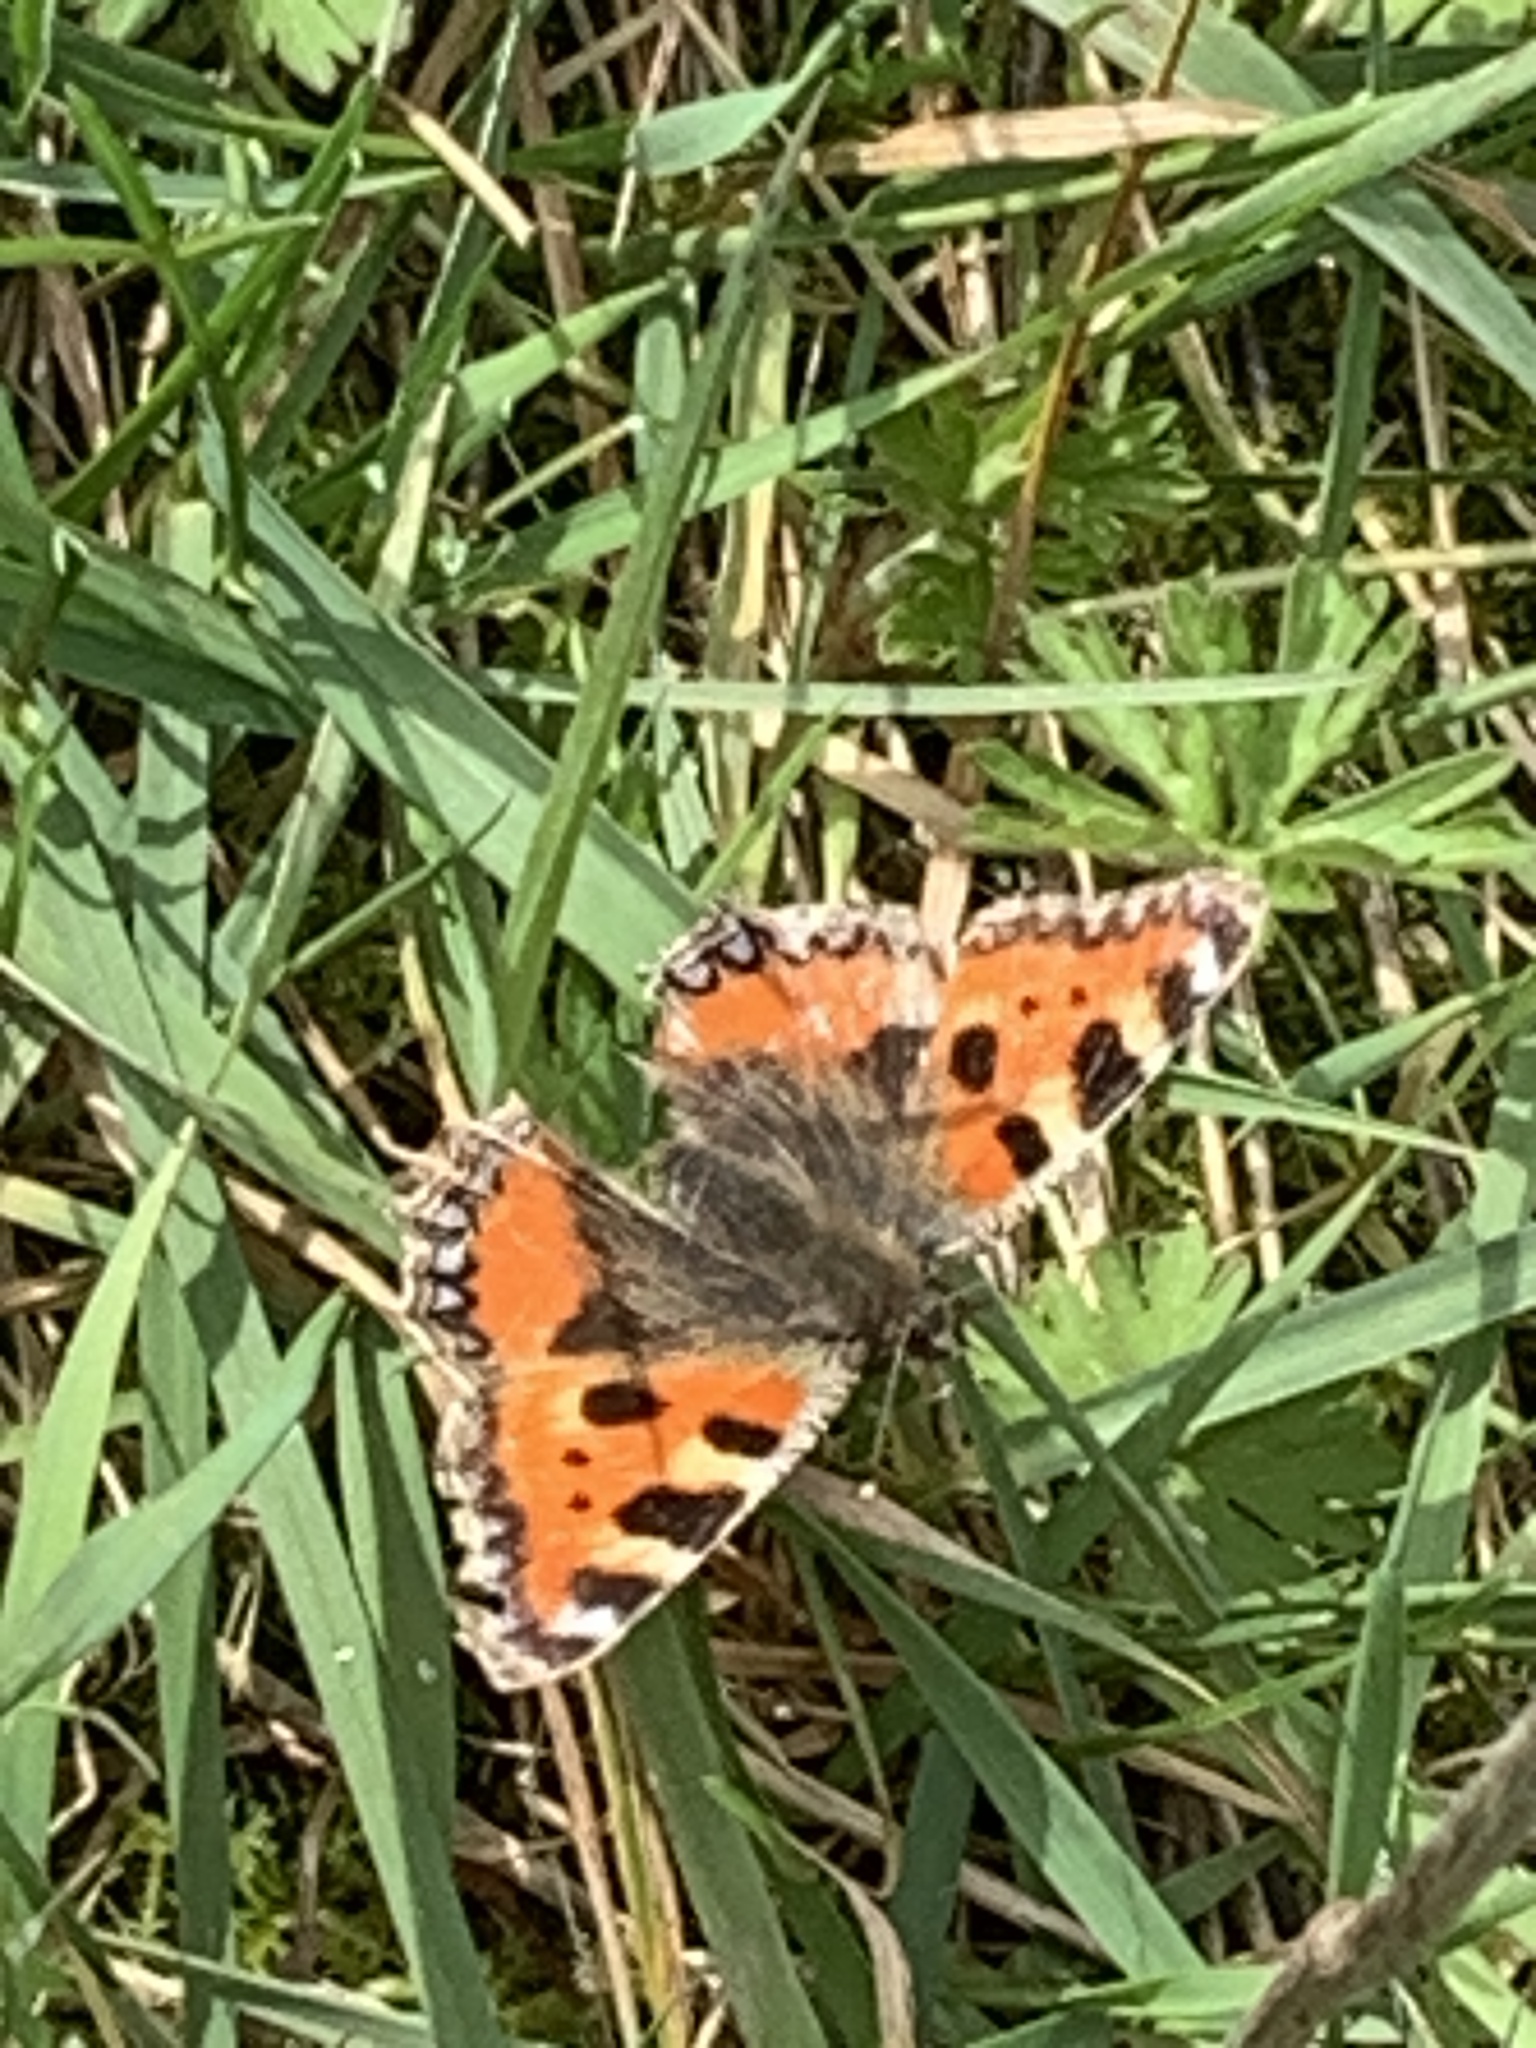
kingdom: Animalia
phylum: Arthropoda
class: Insecta
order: Lepidoptera
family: Nymphalidae
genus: Aglais
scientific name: Aglais urticae
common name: Small tortoiseshell
